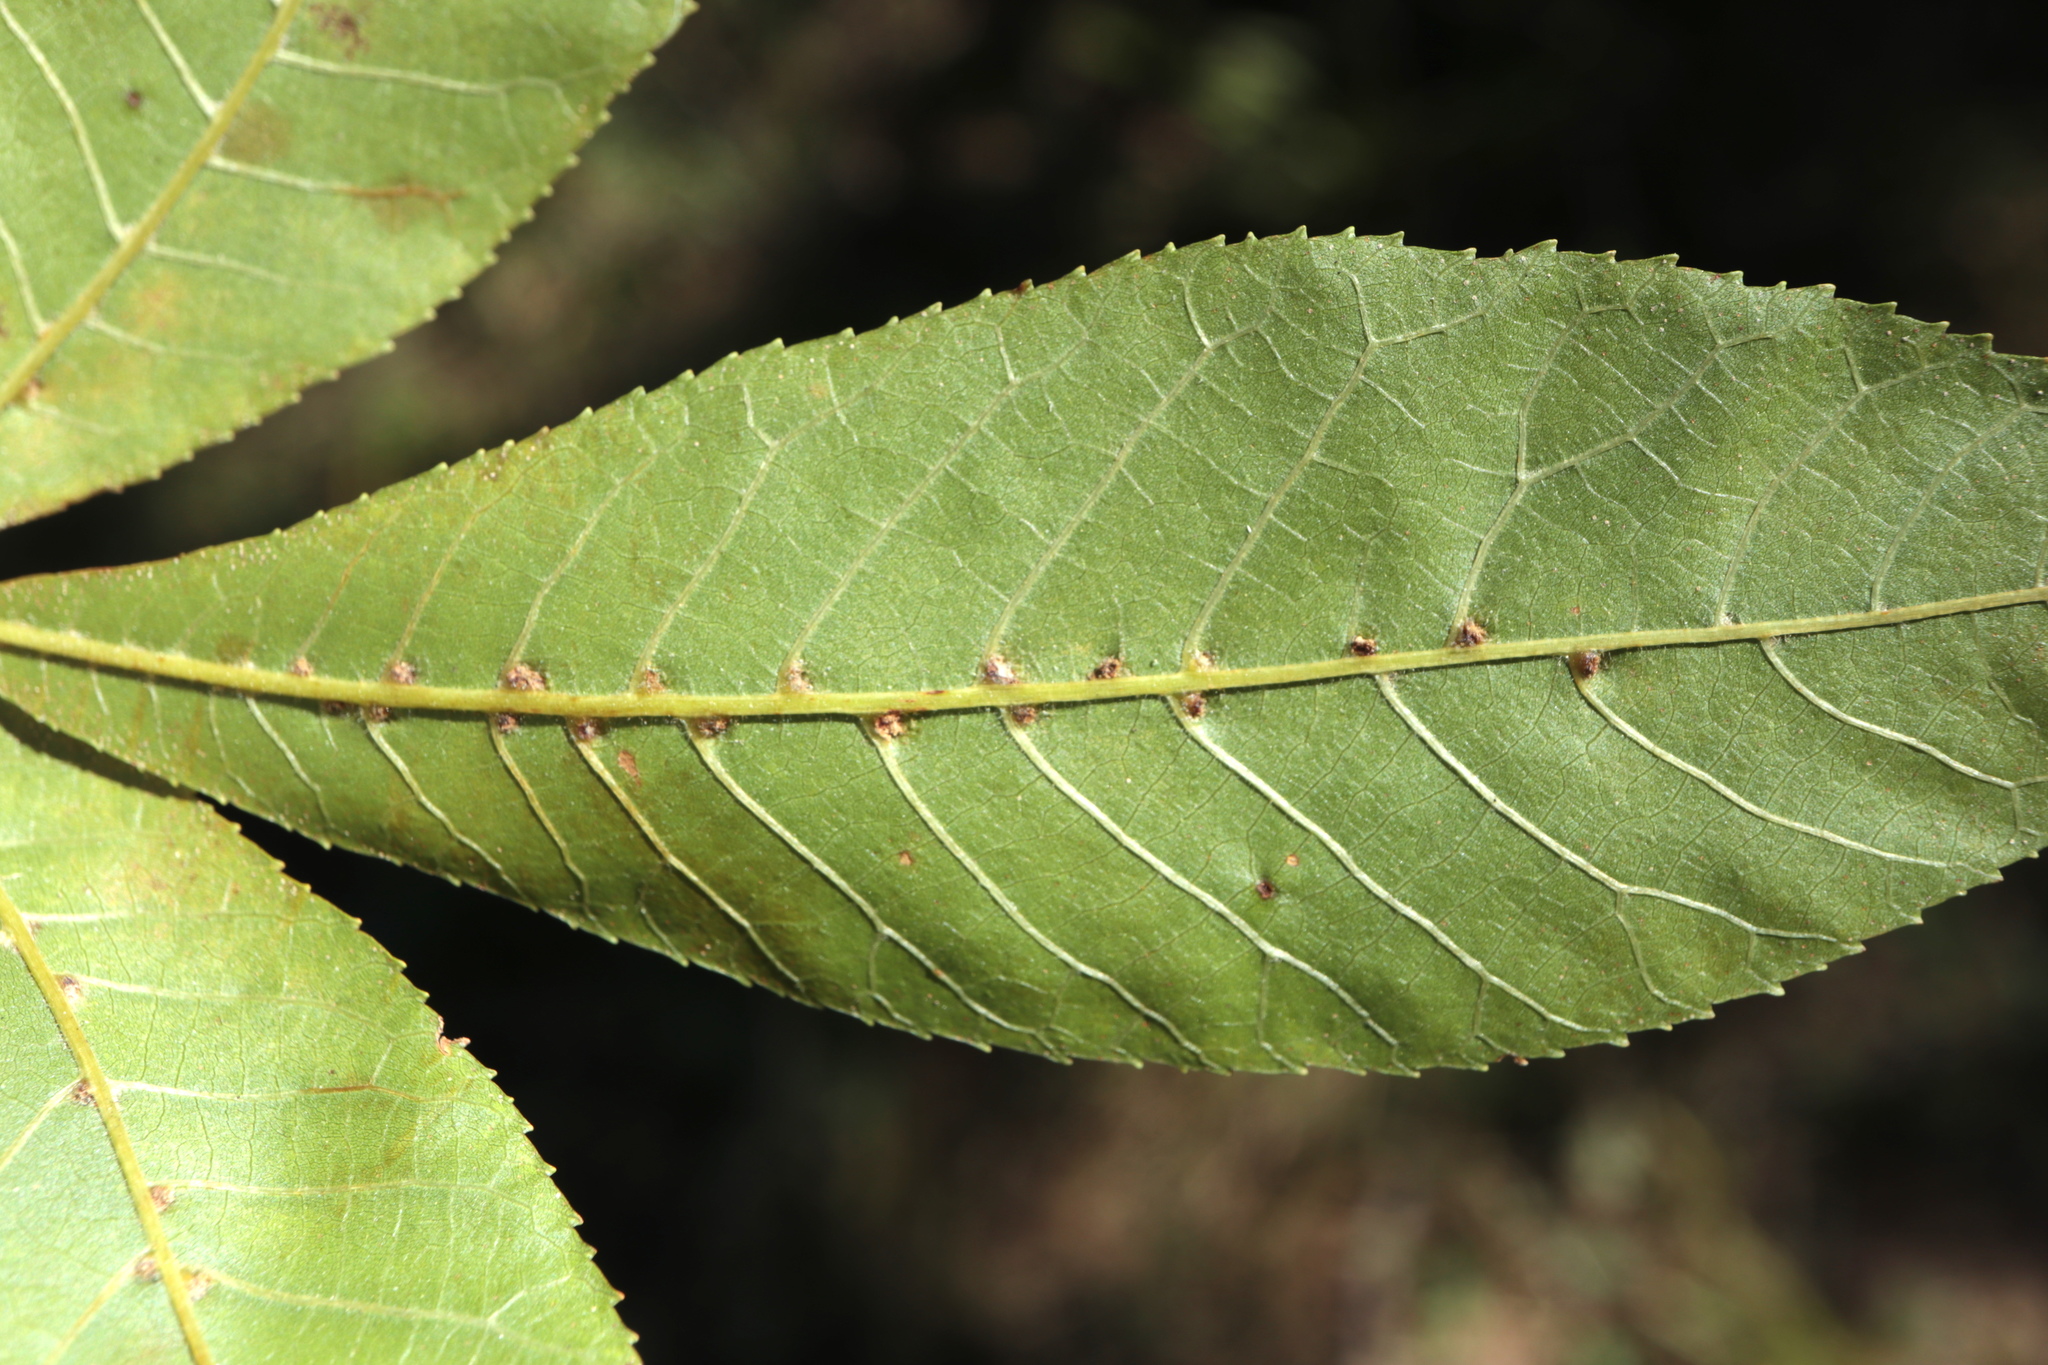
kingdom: Animalia
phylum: Arthropoda
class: Arachnida
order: Trombidiformes
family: Eriophyidae
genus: Aceria
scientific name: Aceria
